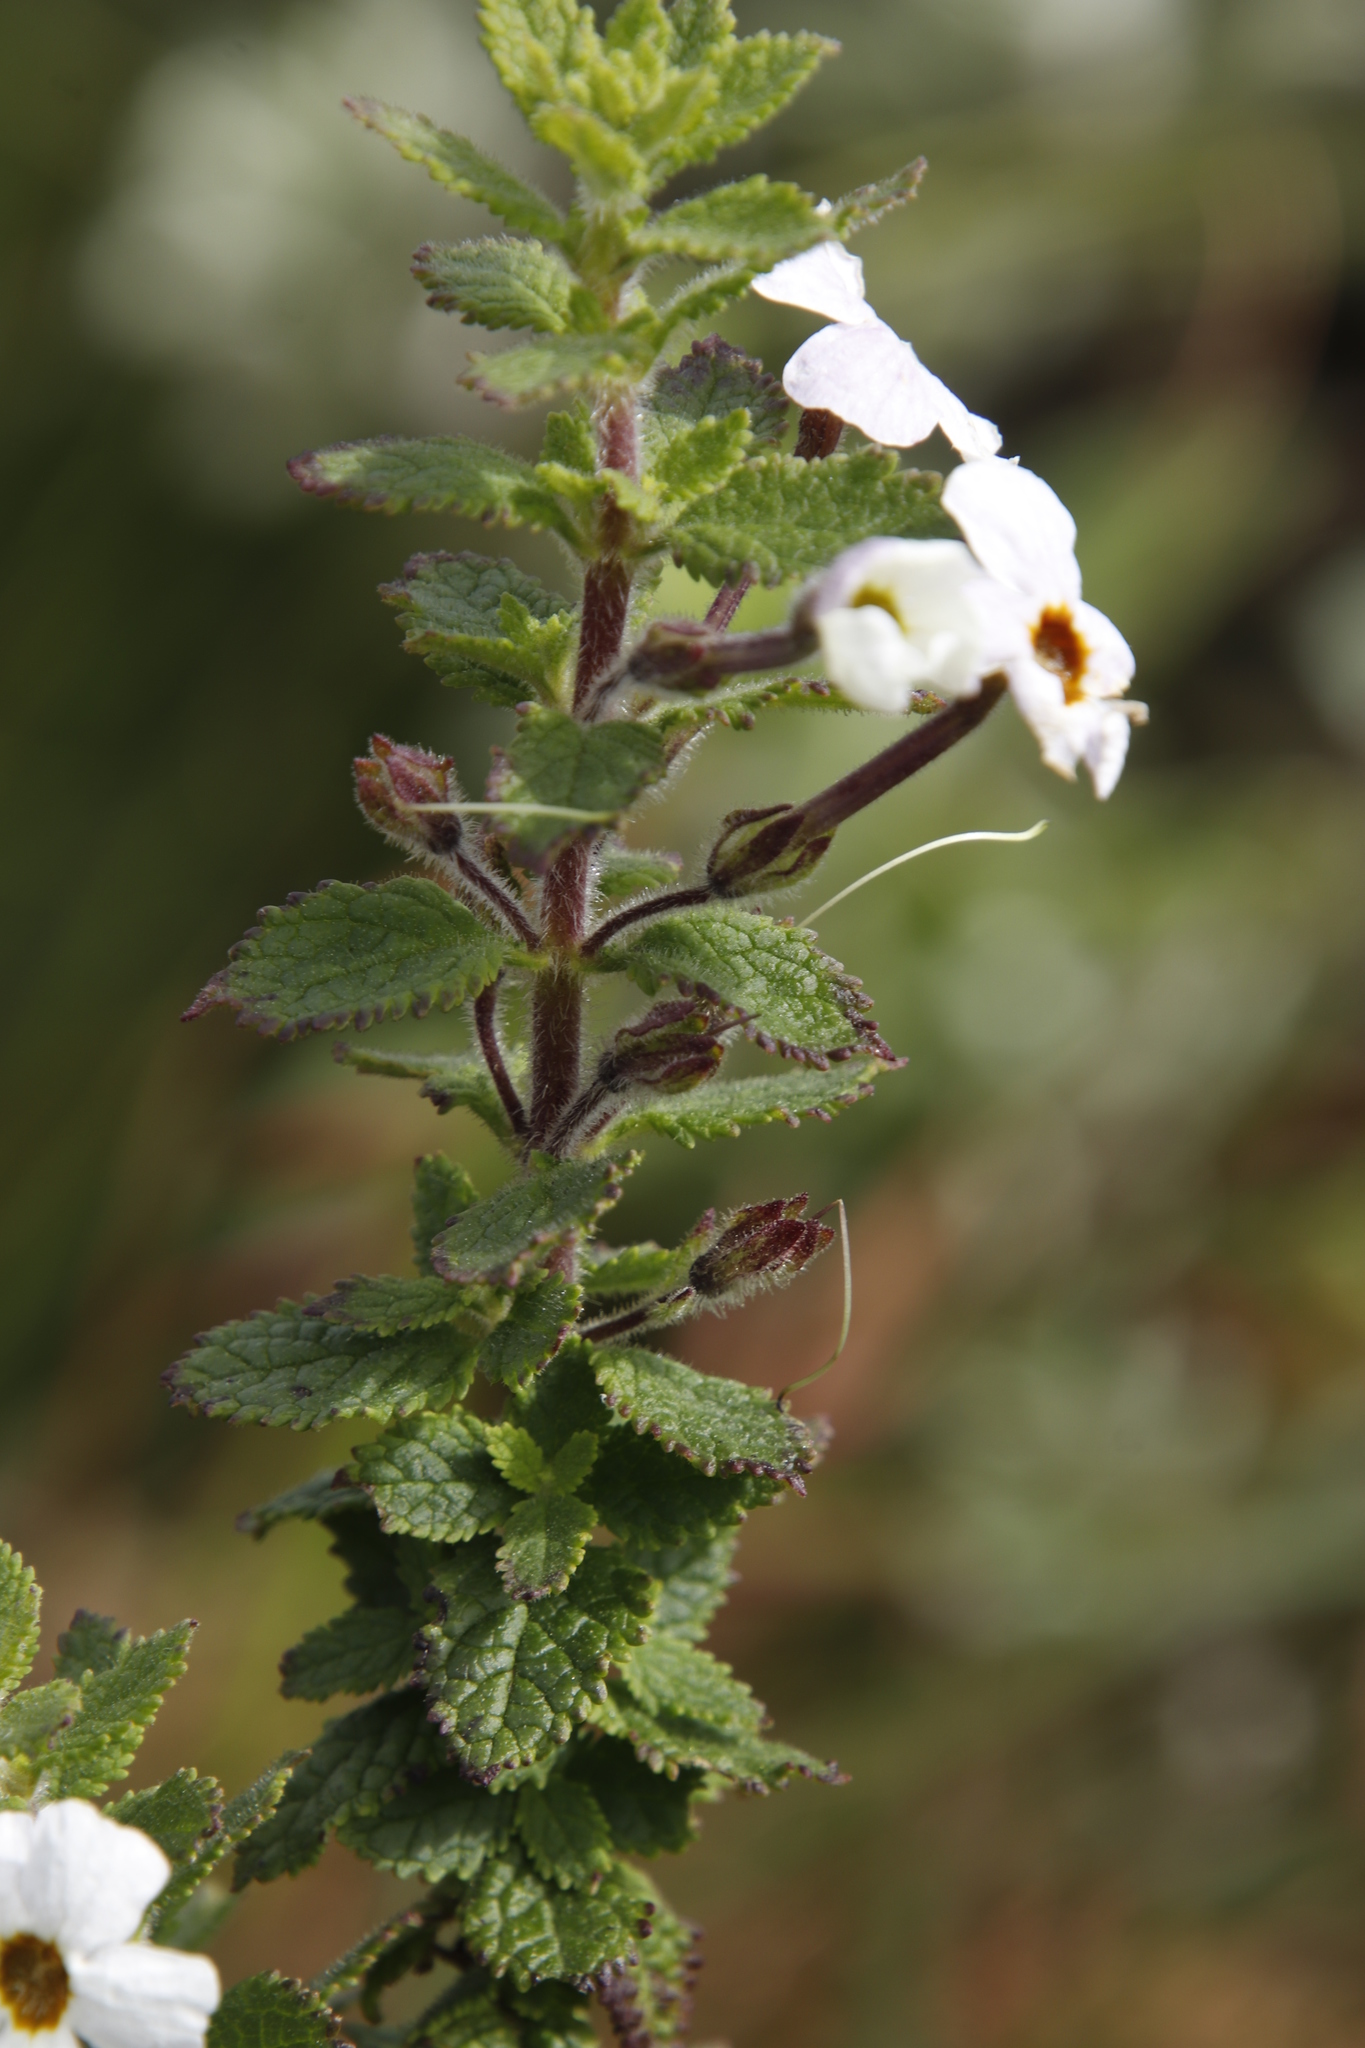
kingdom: Plantae
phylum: Tracheophyta
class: Magnoliopsida
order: Lamiales
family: Scrophulariaceae
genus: Jamesbrittenia
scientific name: Jamesbrittenia carvalhoi
